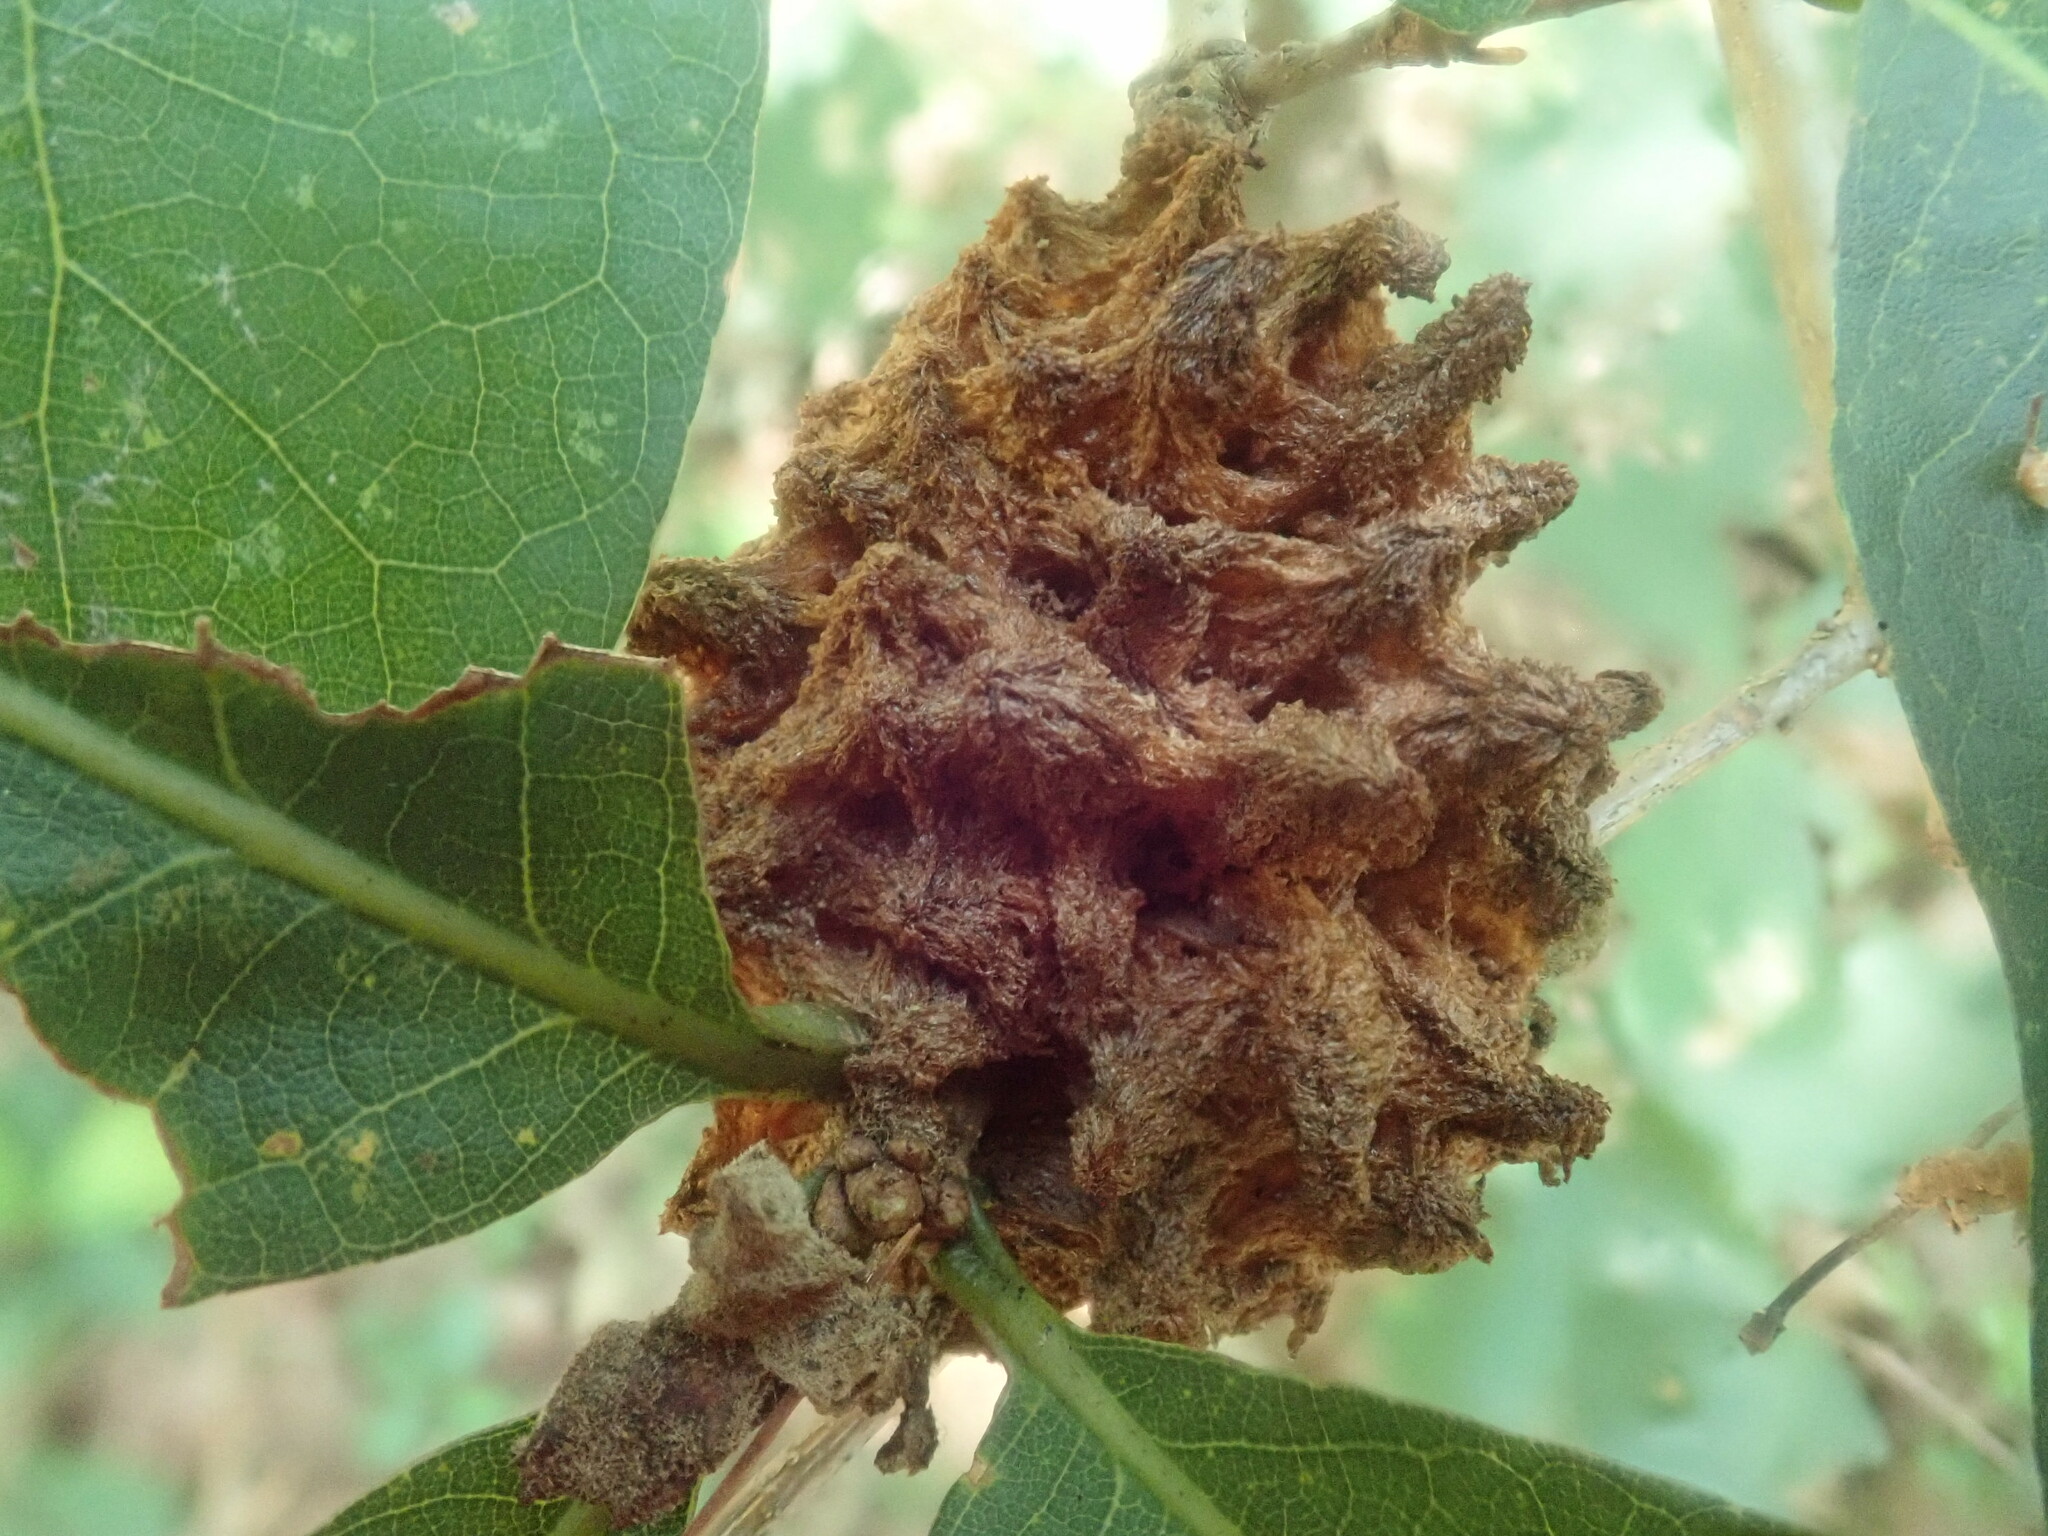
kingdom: Animalia
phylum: Arthropoda
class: Insecta
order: Hymenoptera
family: Cynipidae
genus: Callirhytis
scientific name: Callirhytis
